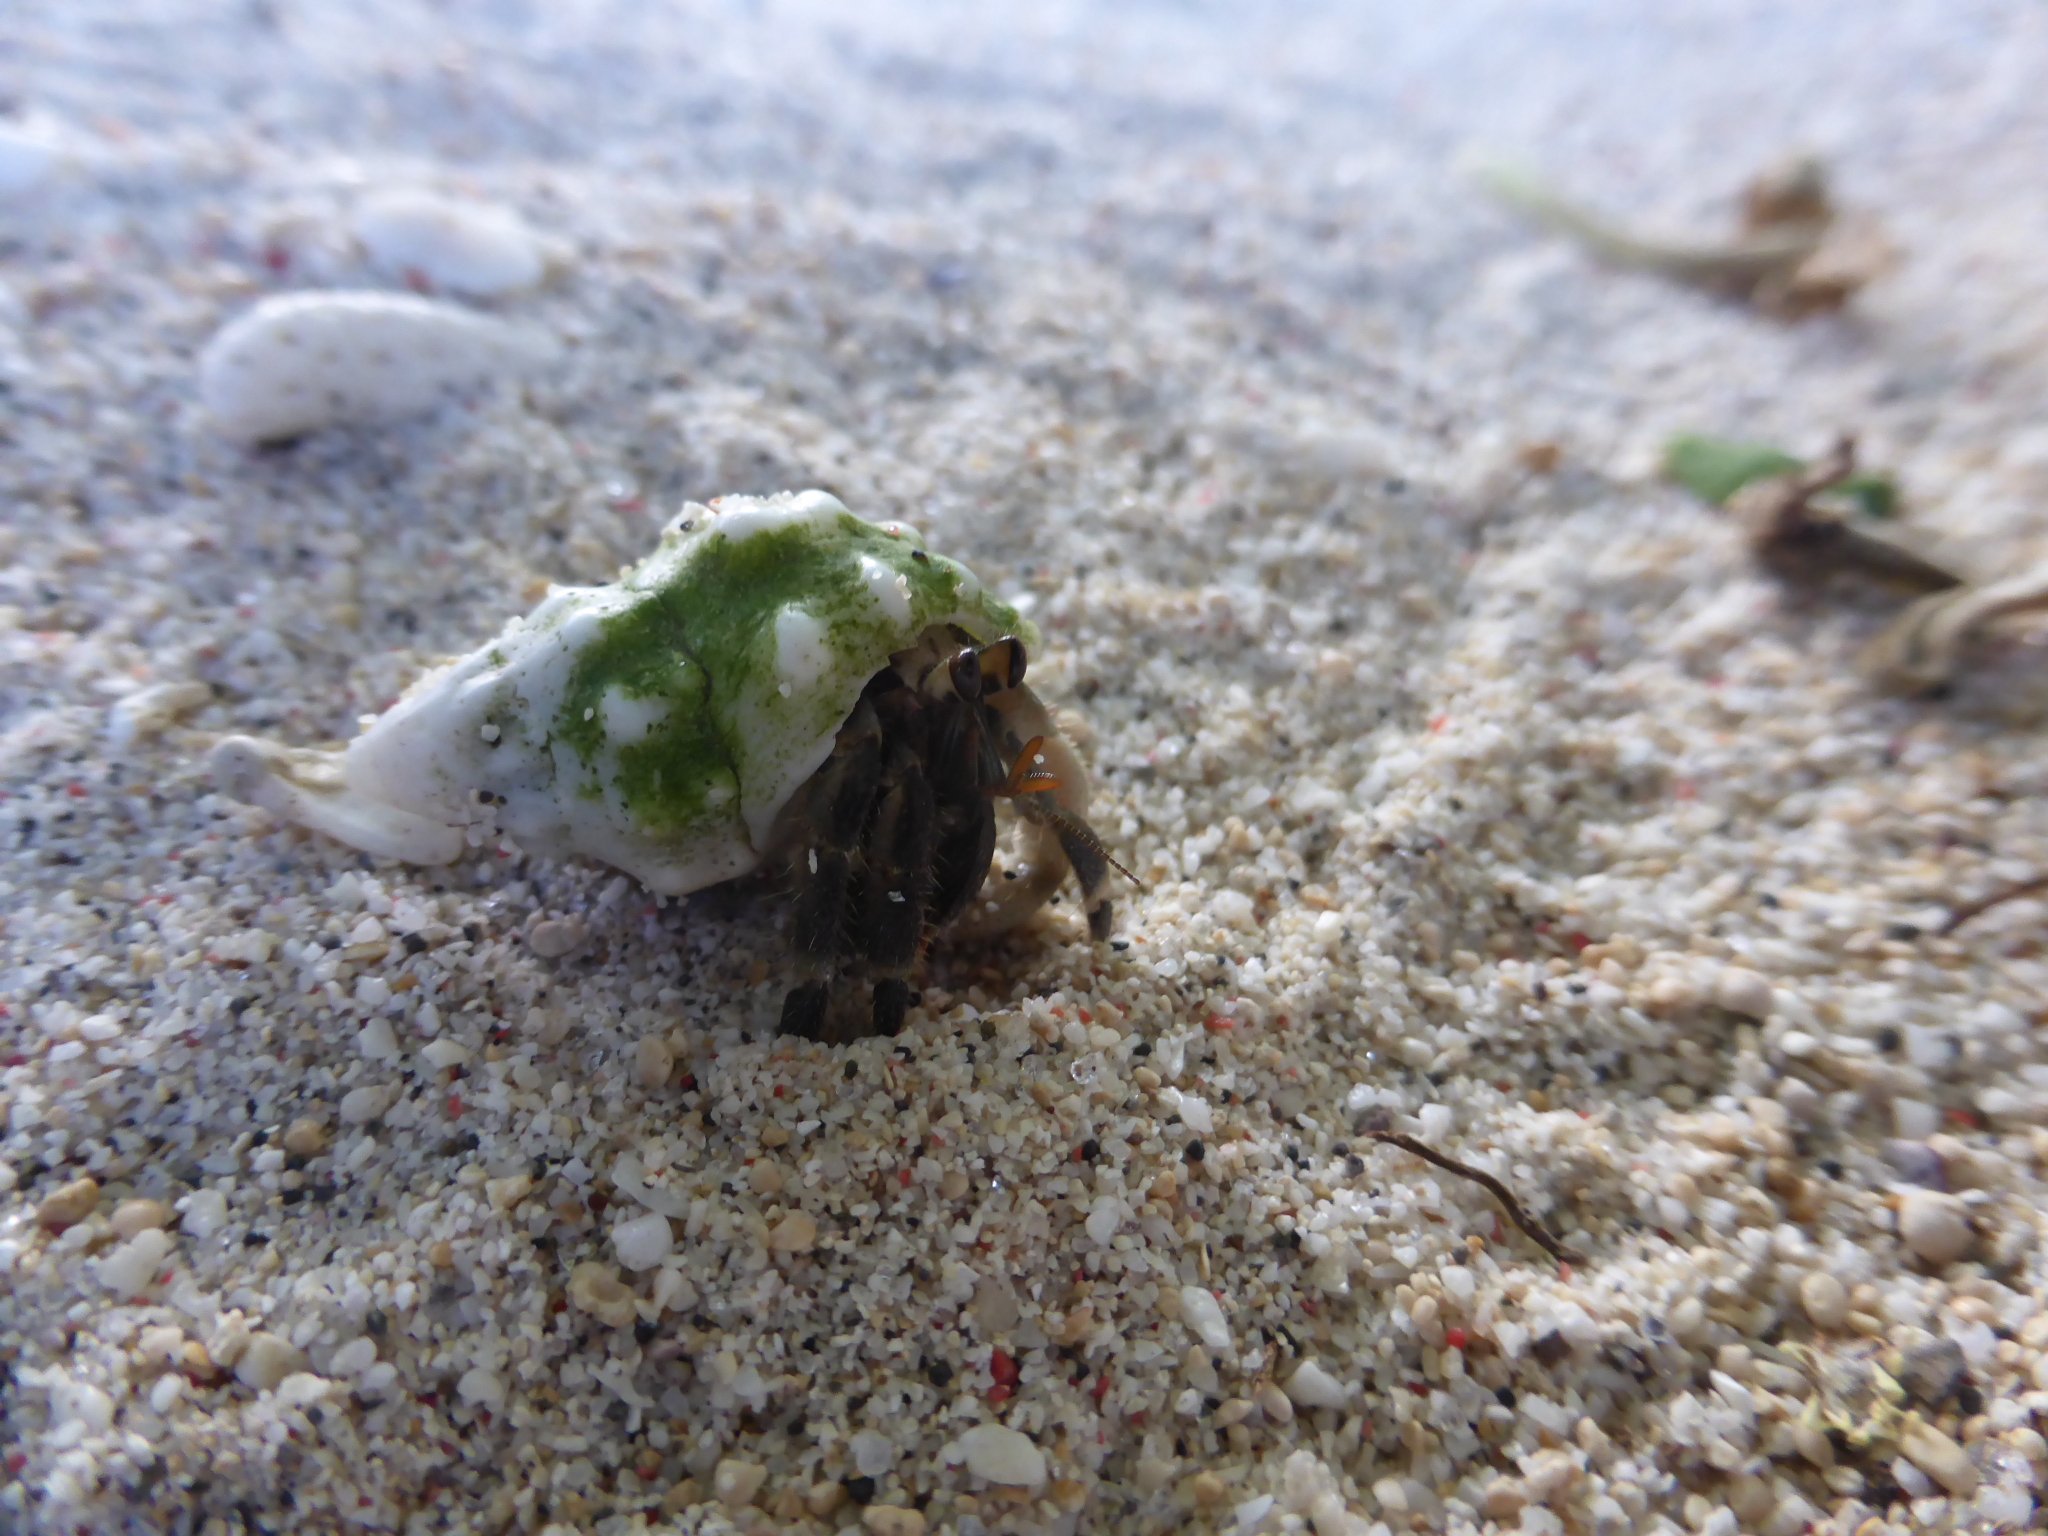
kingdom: Animalia
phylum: Arthropoda
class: Malacostraca
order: Decapoda
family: Coenobitidae
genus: Coenobita
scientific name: Coenobita rugosus
